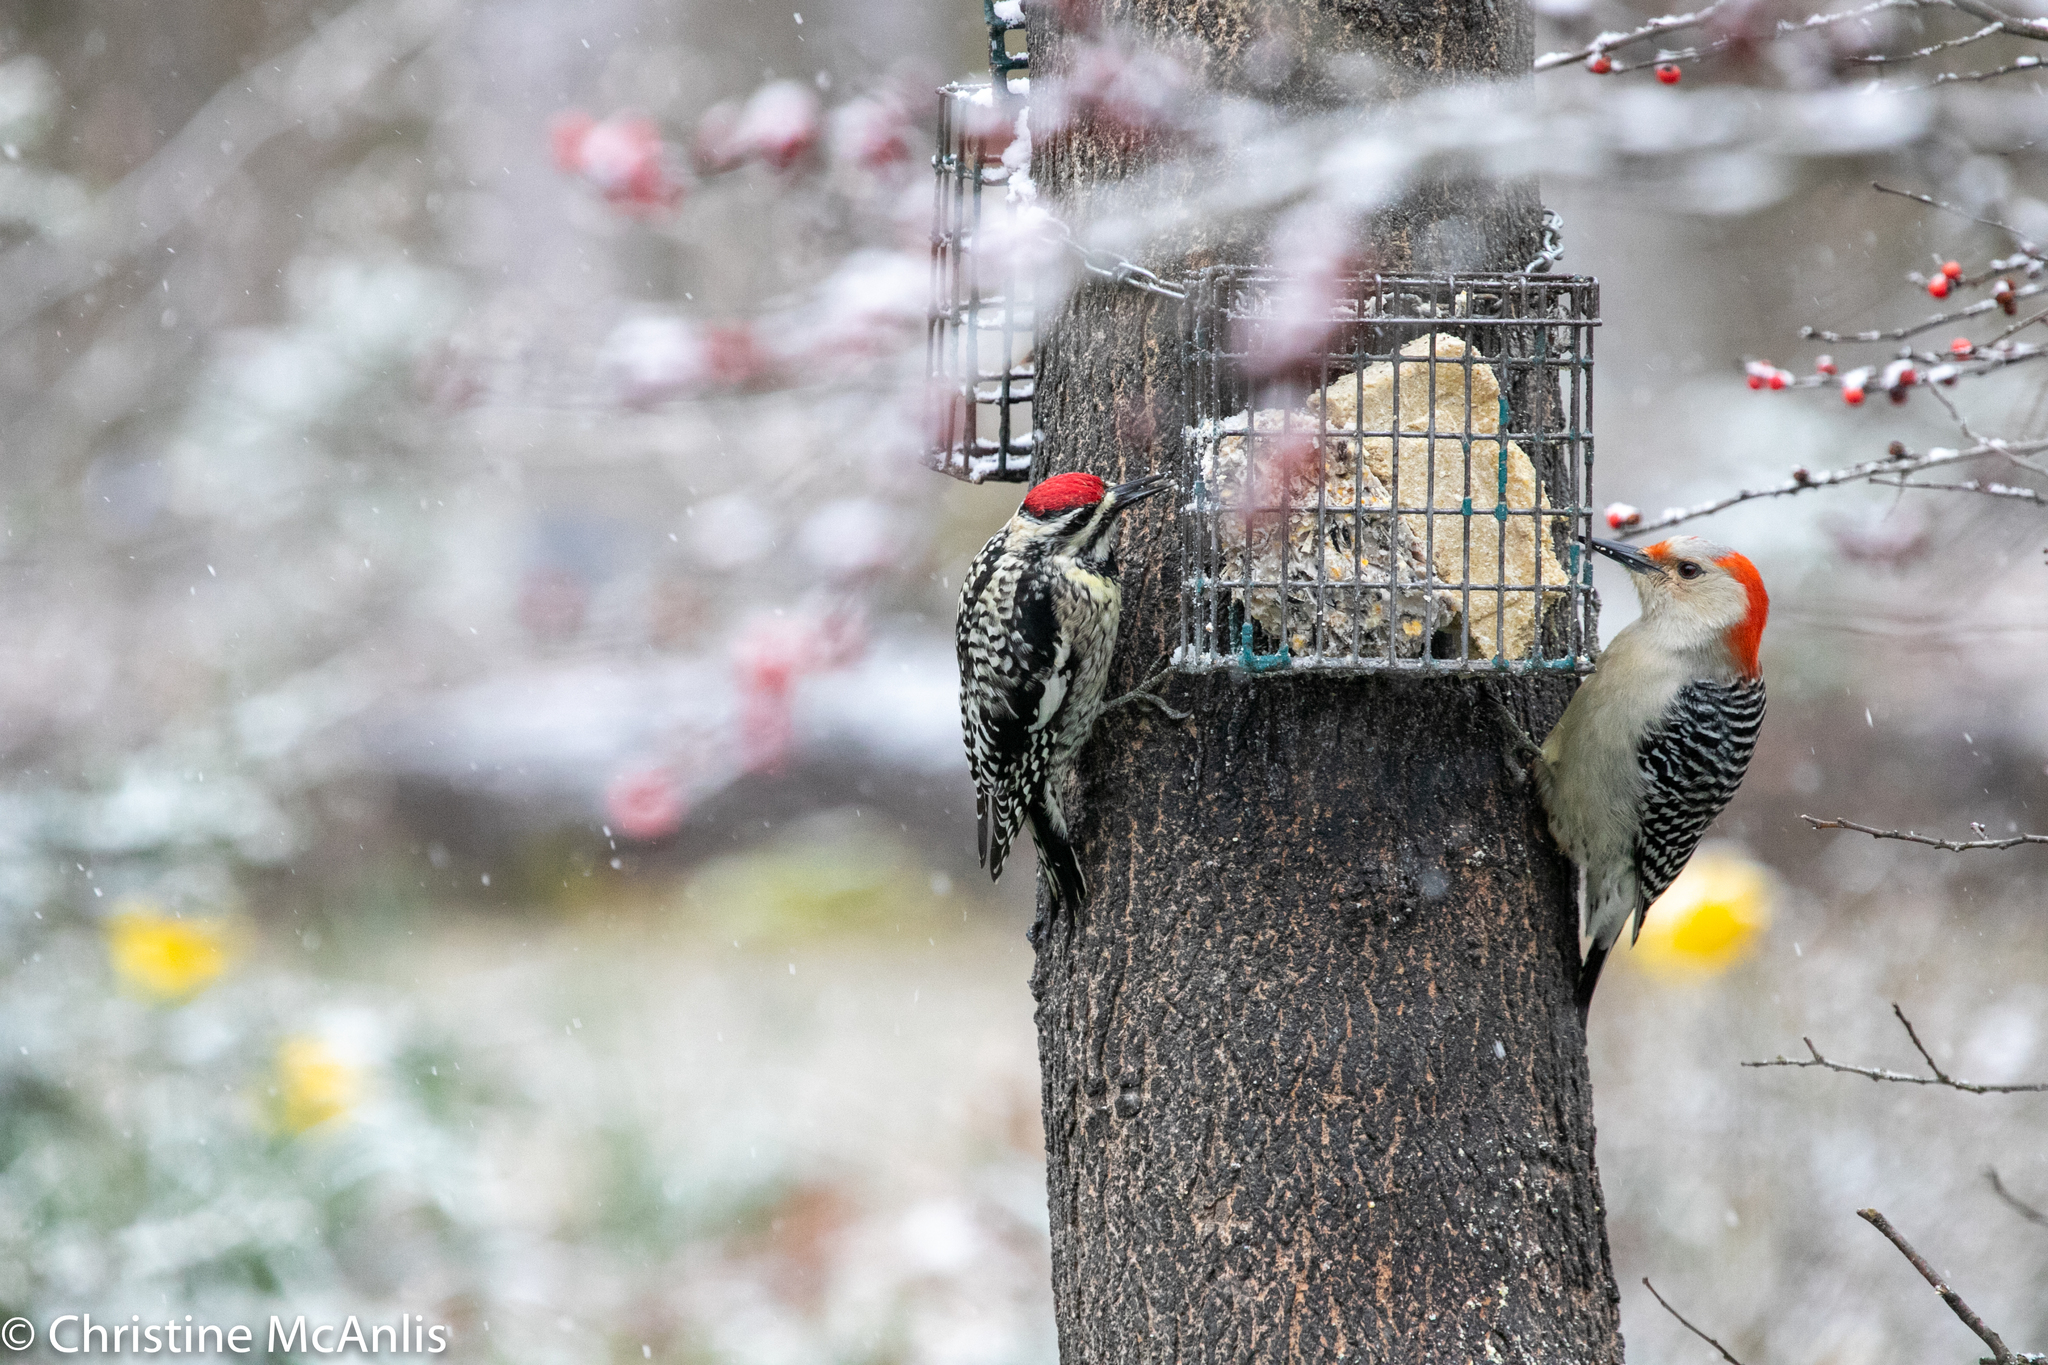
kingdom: Animalia
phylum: Chordata
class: Aves
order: Piciformes
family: Picidae
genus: Sphyrapicus
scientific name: Sphyrapicus varius
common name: Yellow-bellied sapsucker
